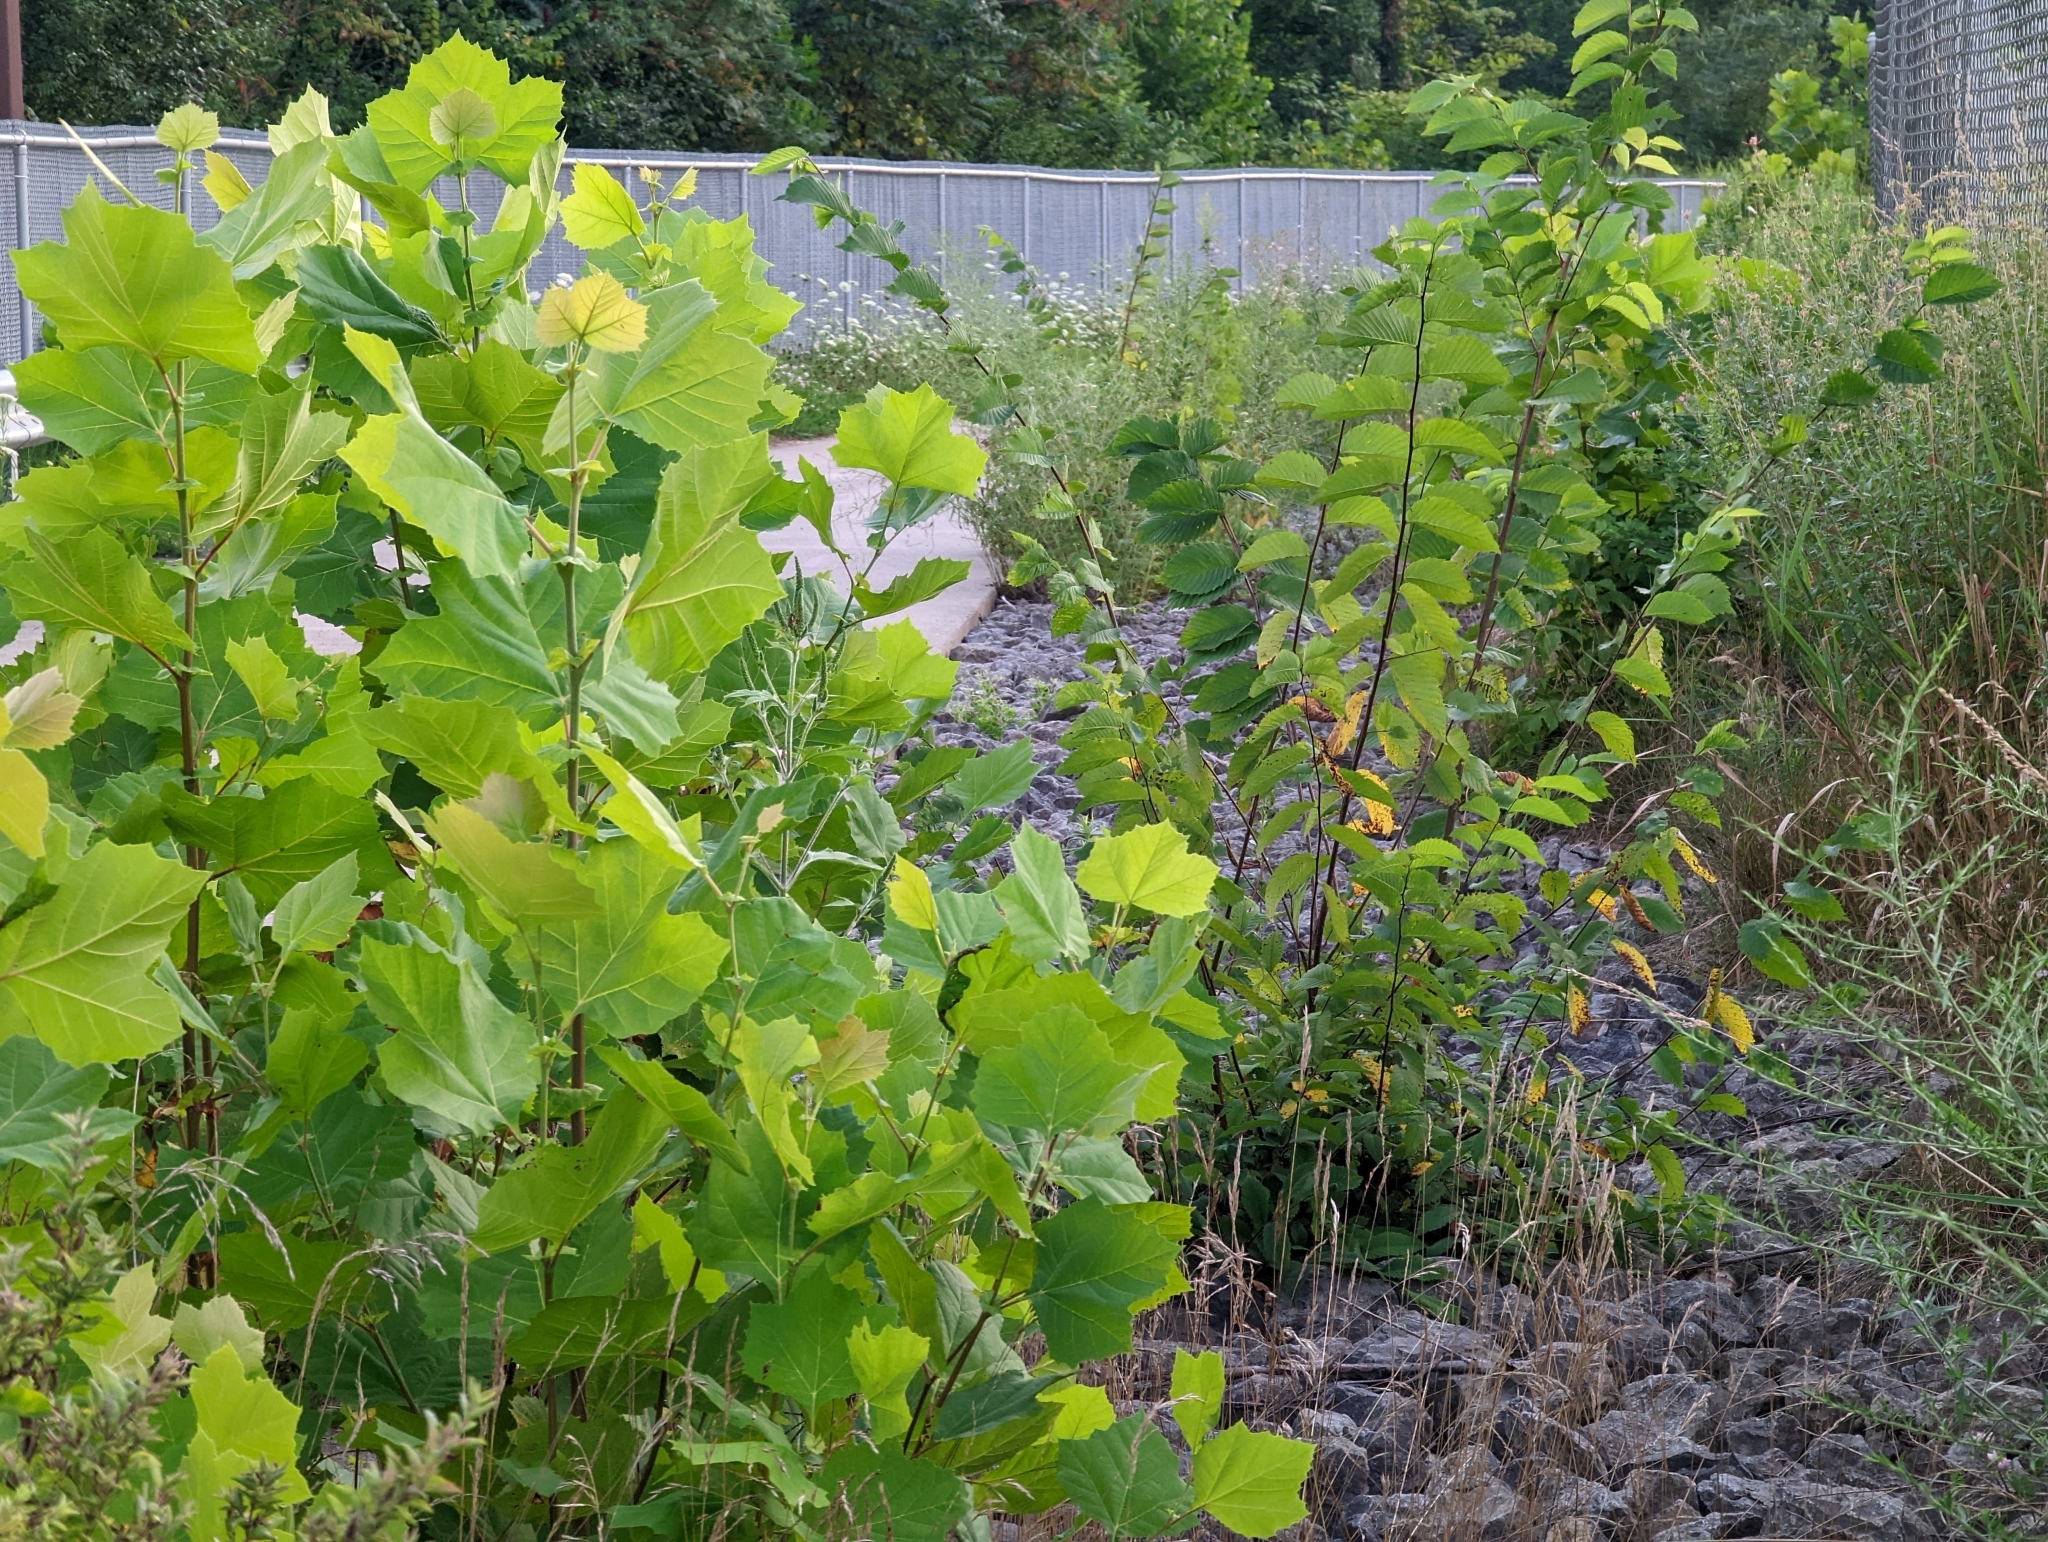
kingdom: Plantae
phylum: Tracheophyta
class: Magnoliopsida
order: Proteales
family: Platanaceae
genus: Platanus
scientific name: Platanus occidentalis
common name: American sycamore
